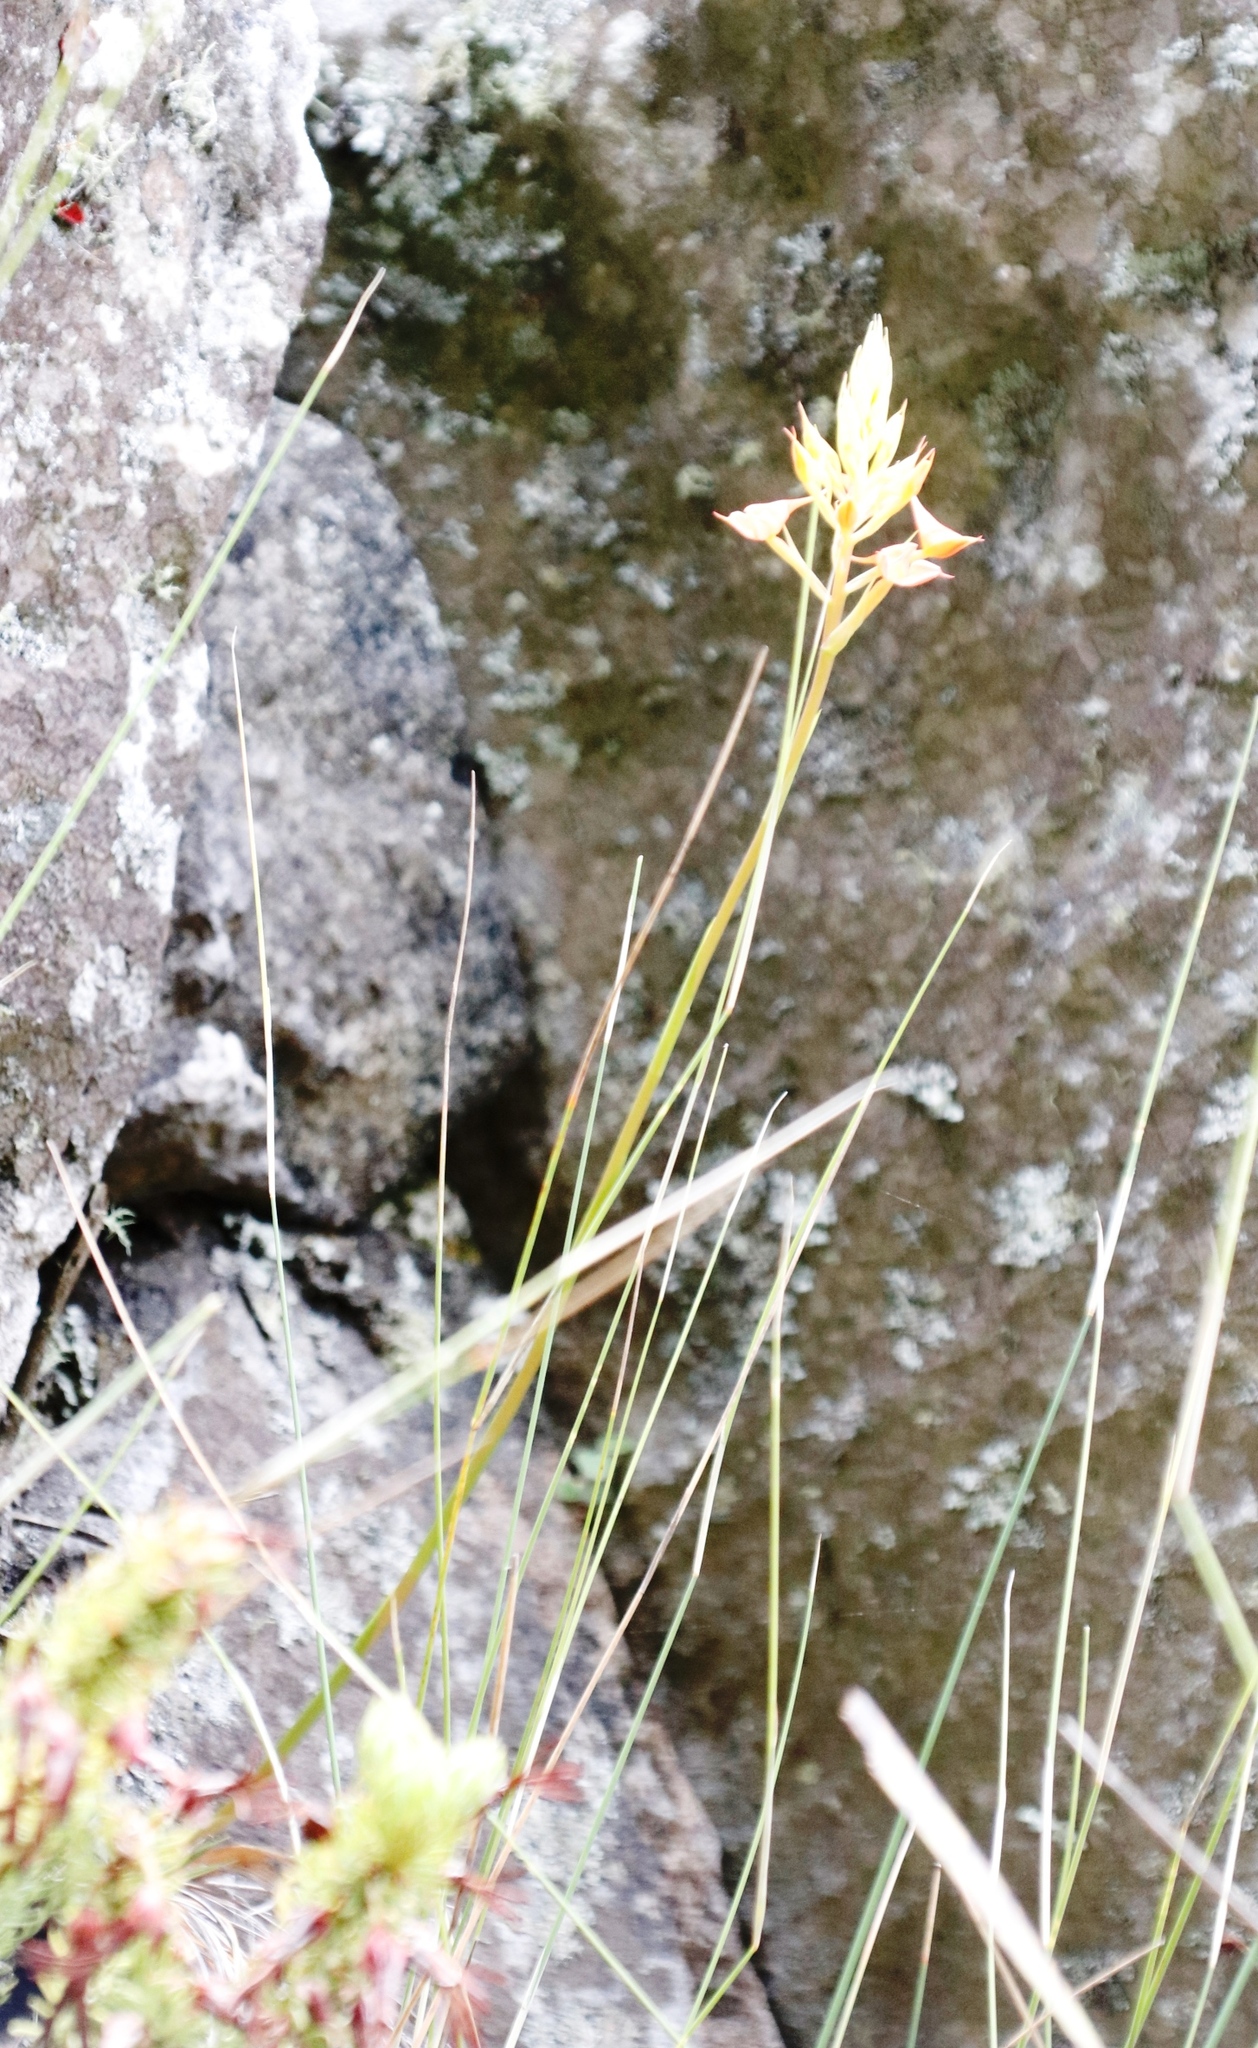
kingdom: Plantae
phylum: Tracheophyta
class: Liliopsida
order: Asparagales
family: Orchidaceae
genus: Disa
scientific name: Disa ferruginea
